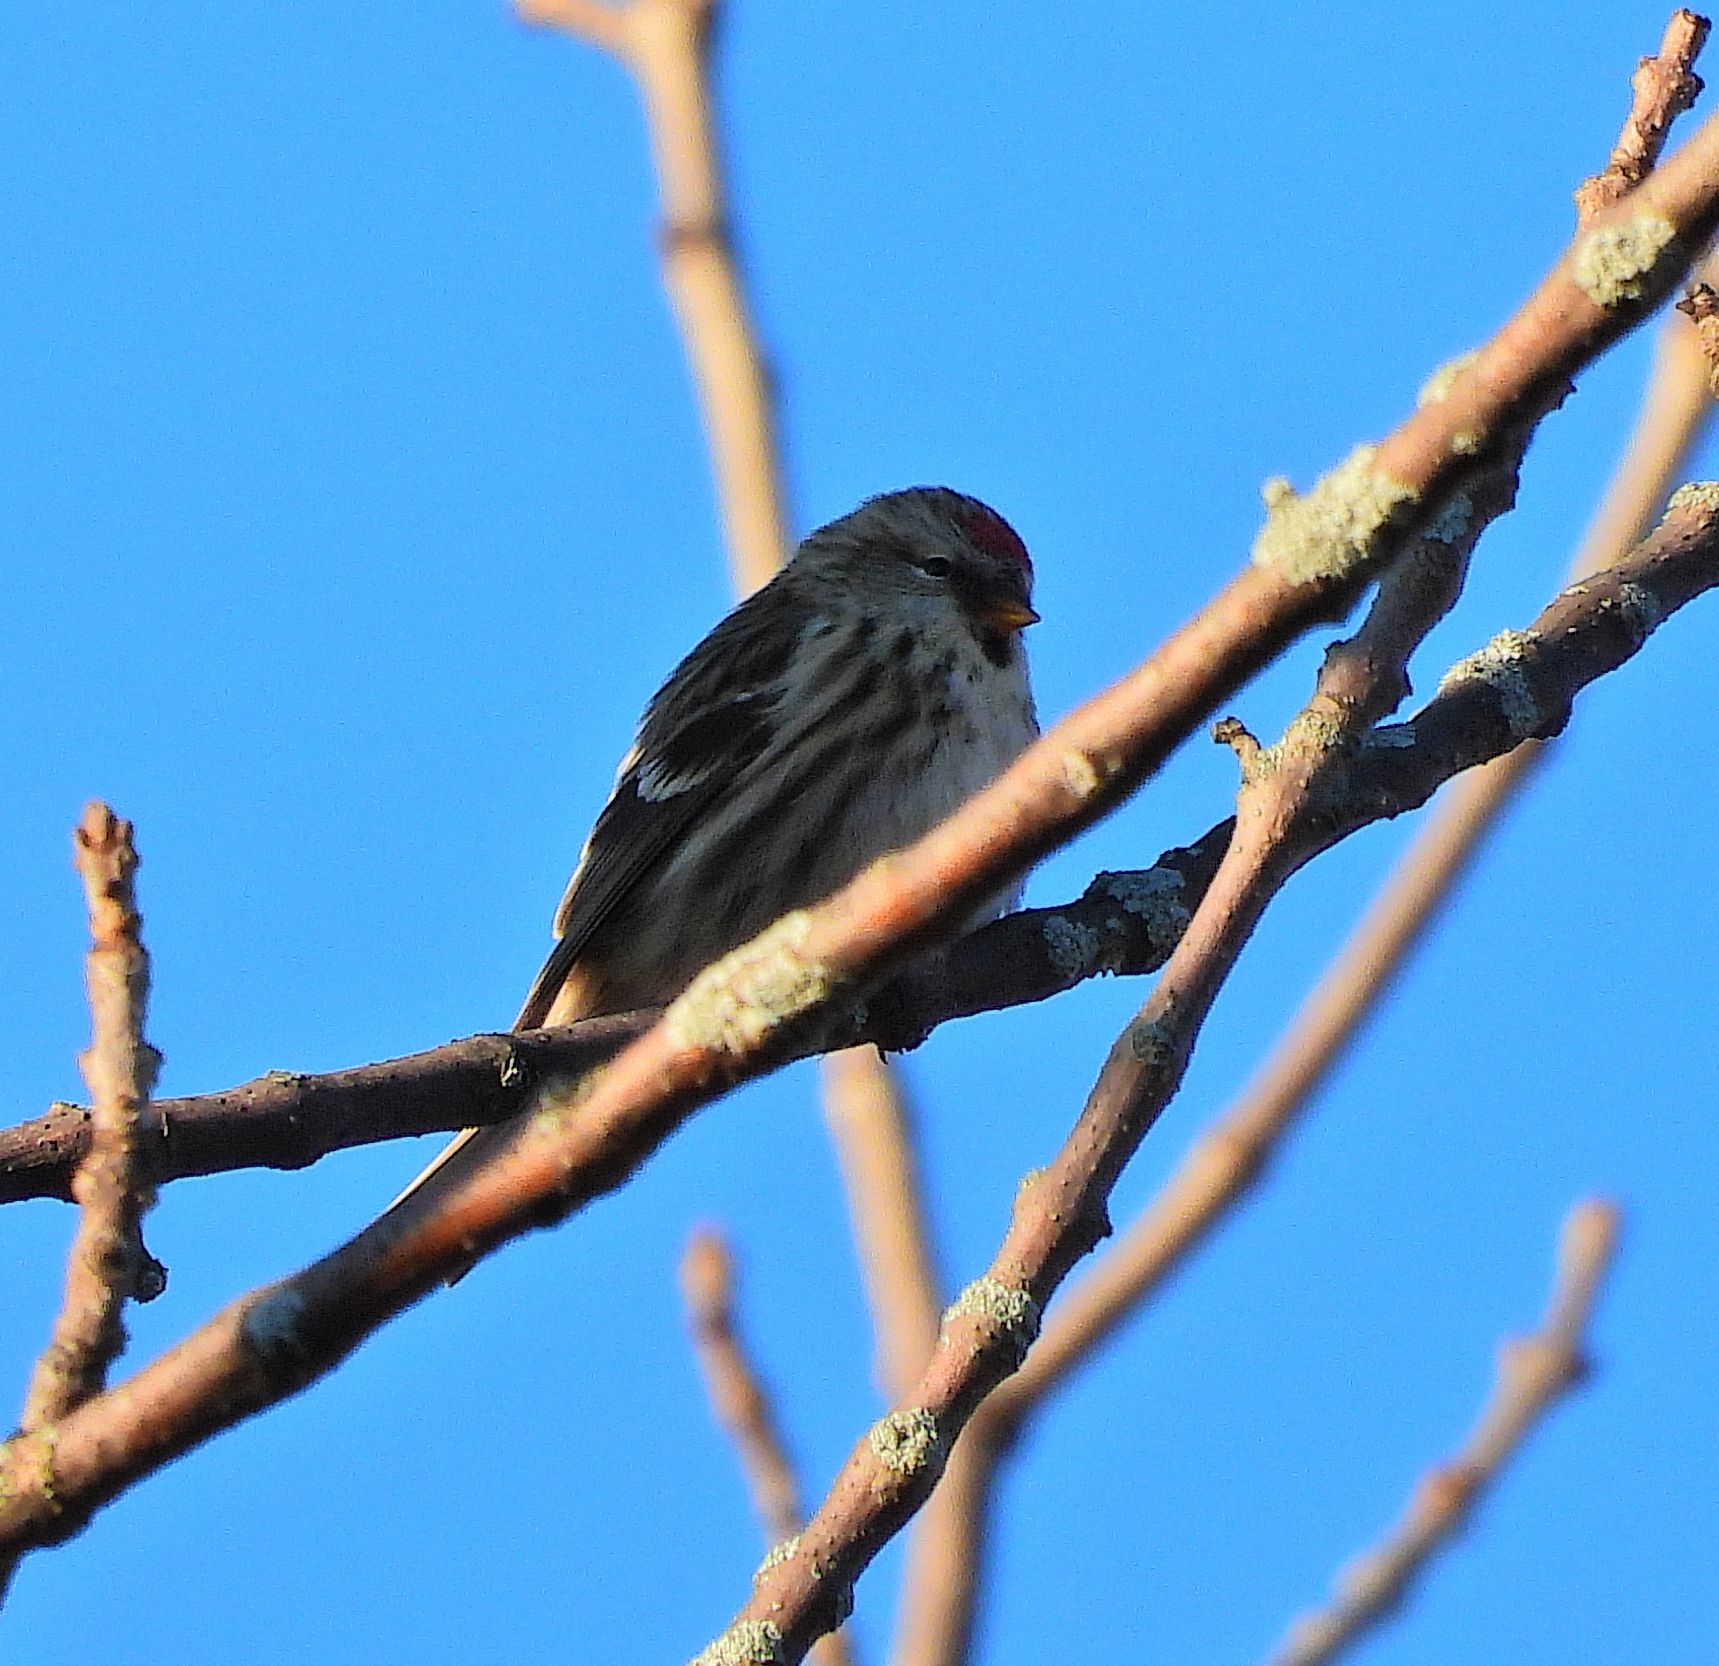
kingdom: Animalia
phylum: Chordata
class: Aves
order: Passeriformes
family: Fringillidae
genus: Acanthis
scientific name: Acanthis flammea
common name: Common redpoll
